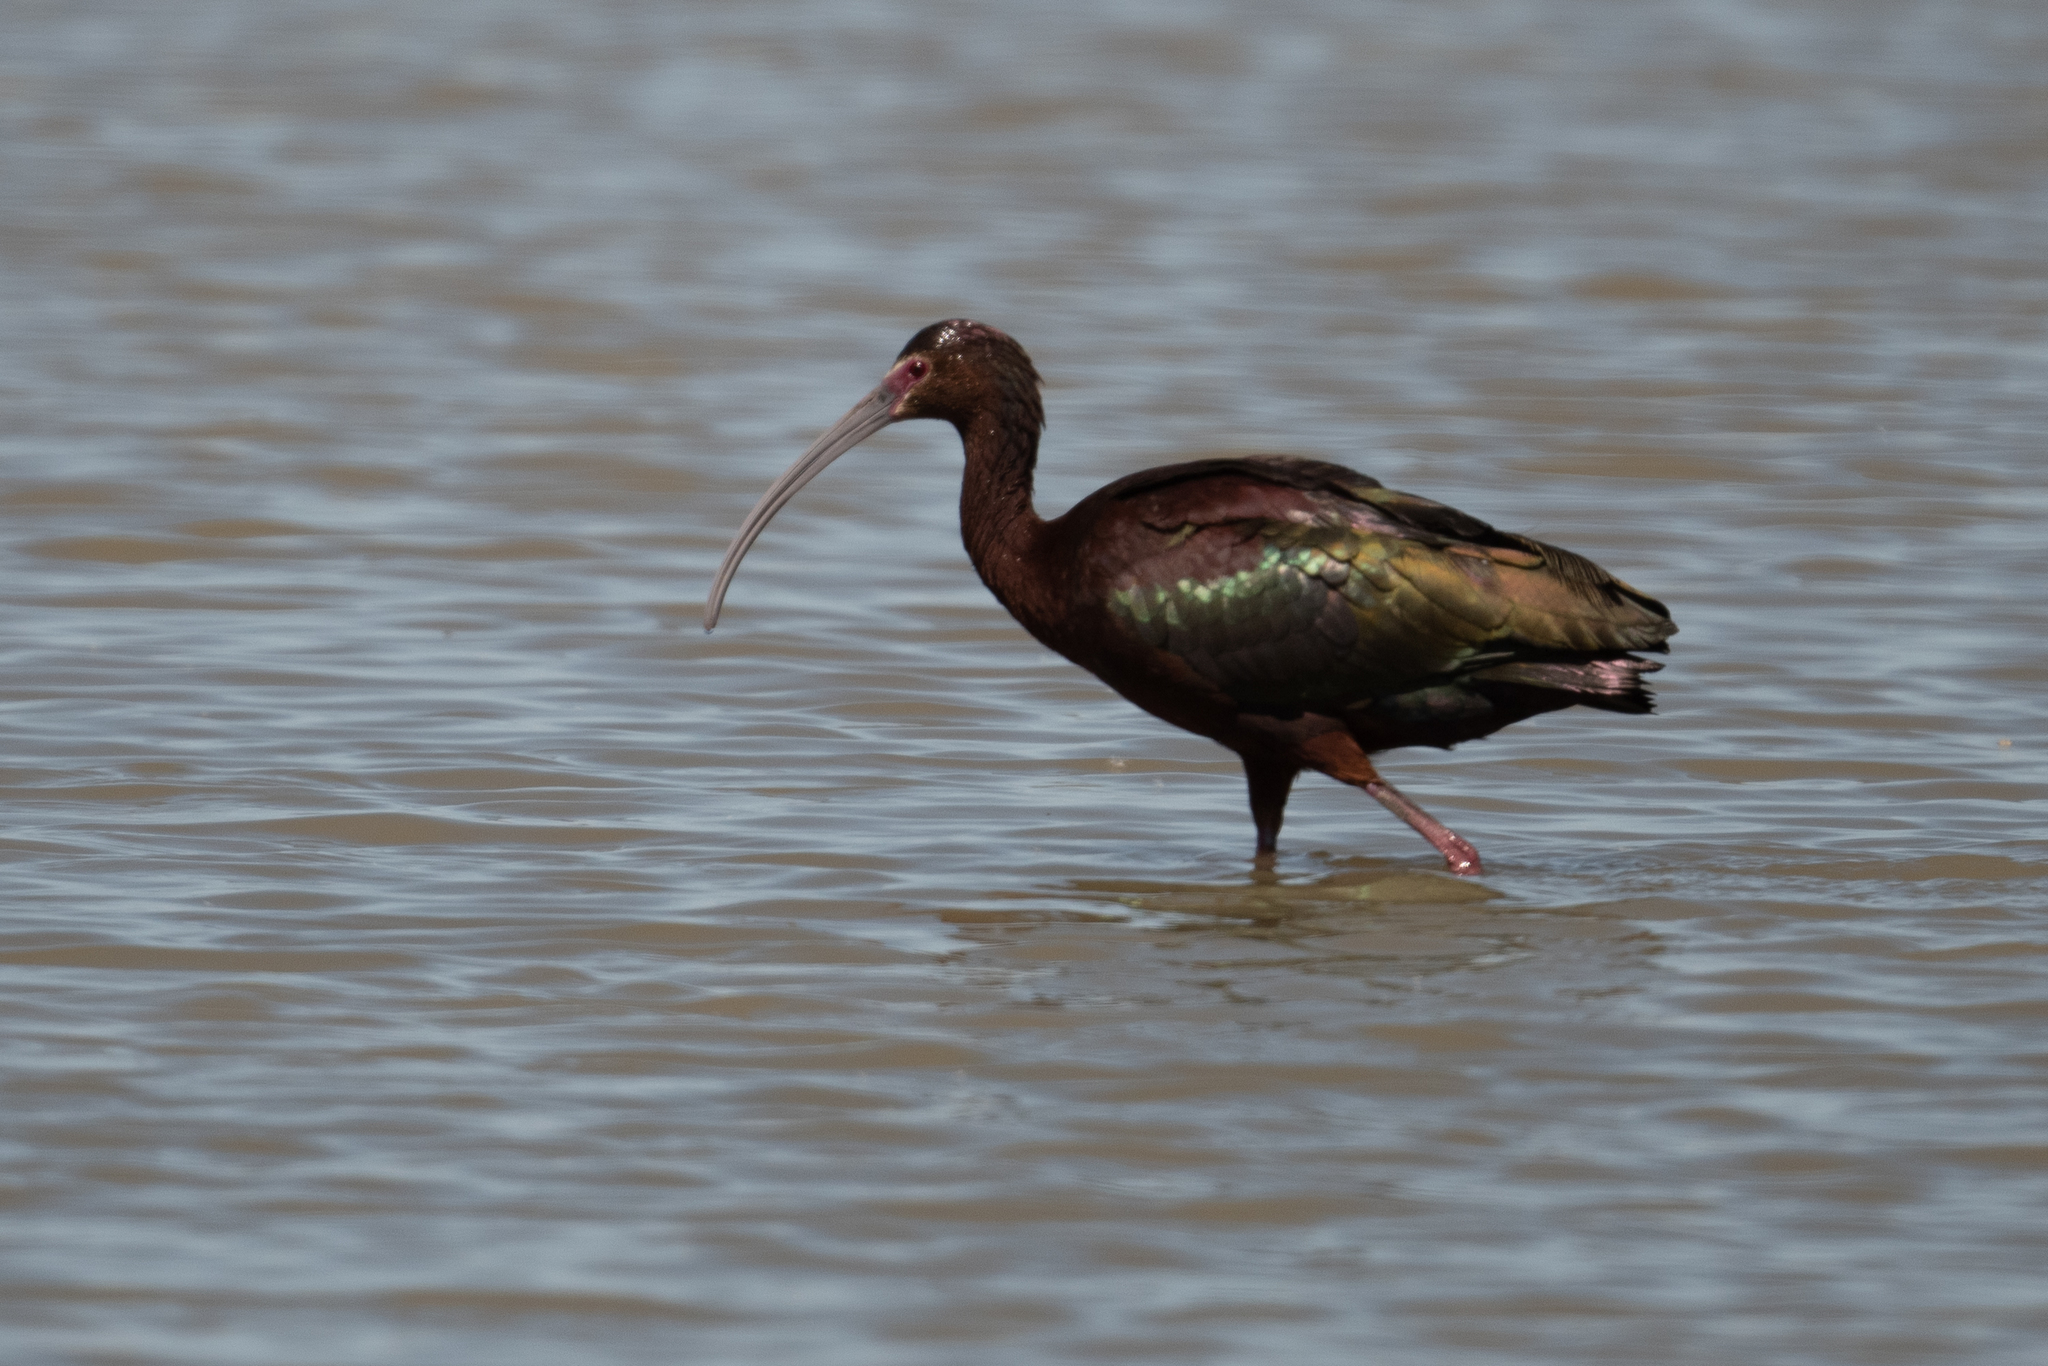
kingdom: Animalia
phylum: Chordata
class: Aves
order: Pelecaniformes
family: Threskiornithidae
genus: Plegadis
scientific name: Plegadis chihi
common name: White-faced ibis
